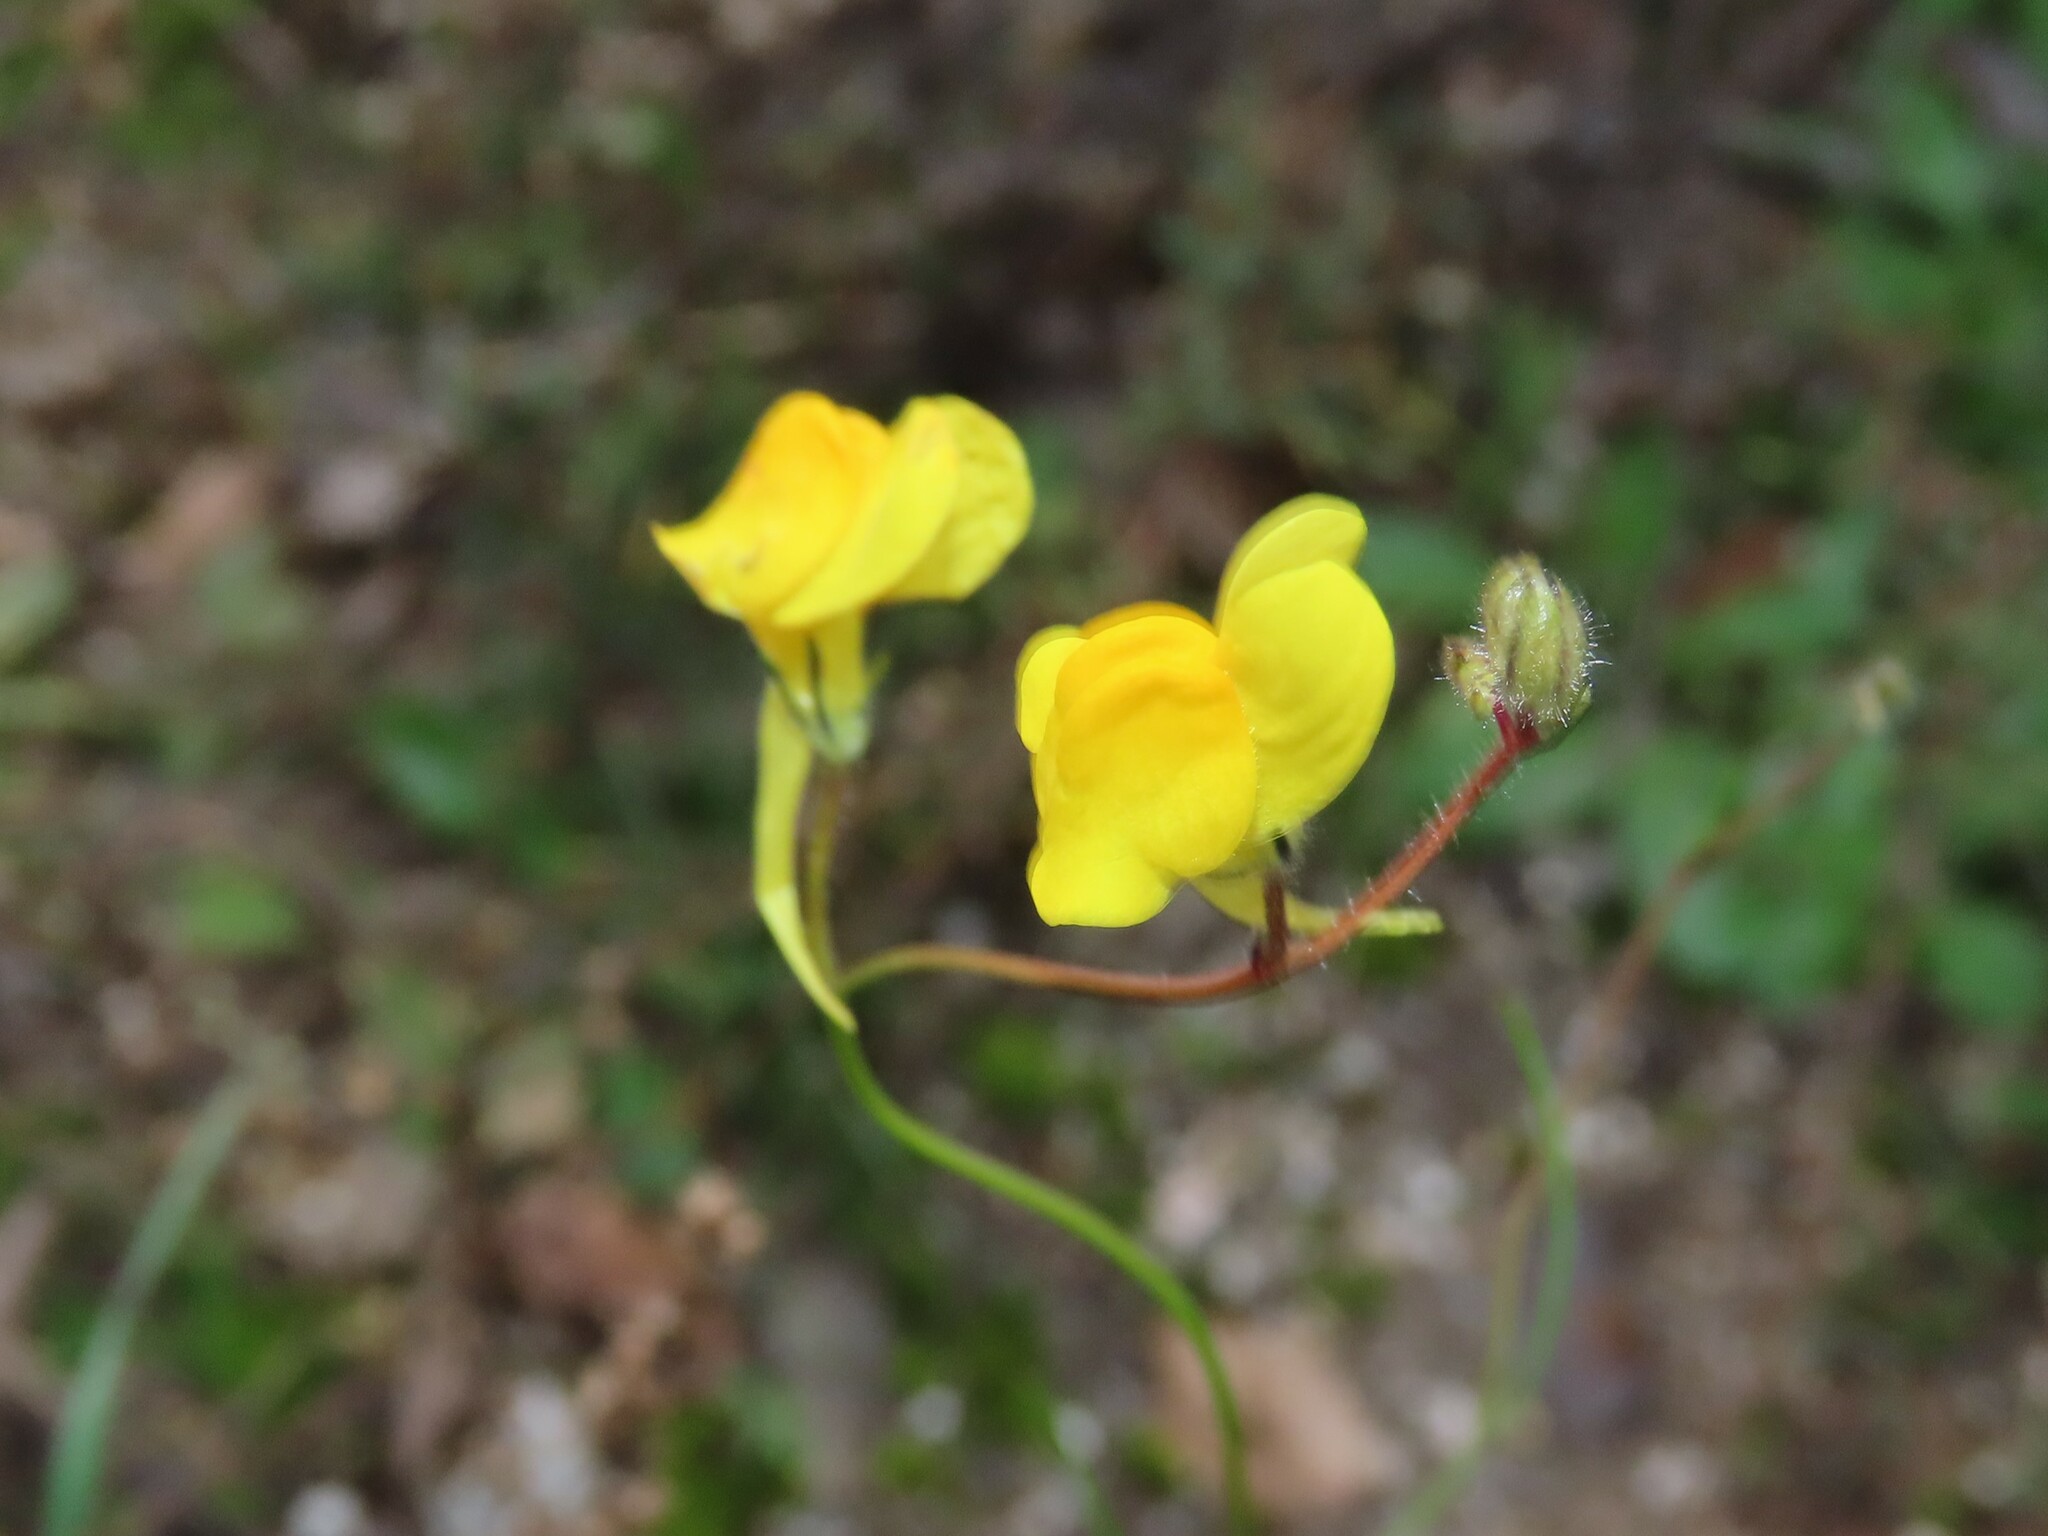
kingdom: Plantae
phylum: Tracheophyta
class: Magnoliopsida
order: Lamiales
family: Plantaginaceae
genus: Linaria
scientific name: Linaria spartea
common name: Ballast toadflax
